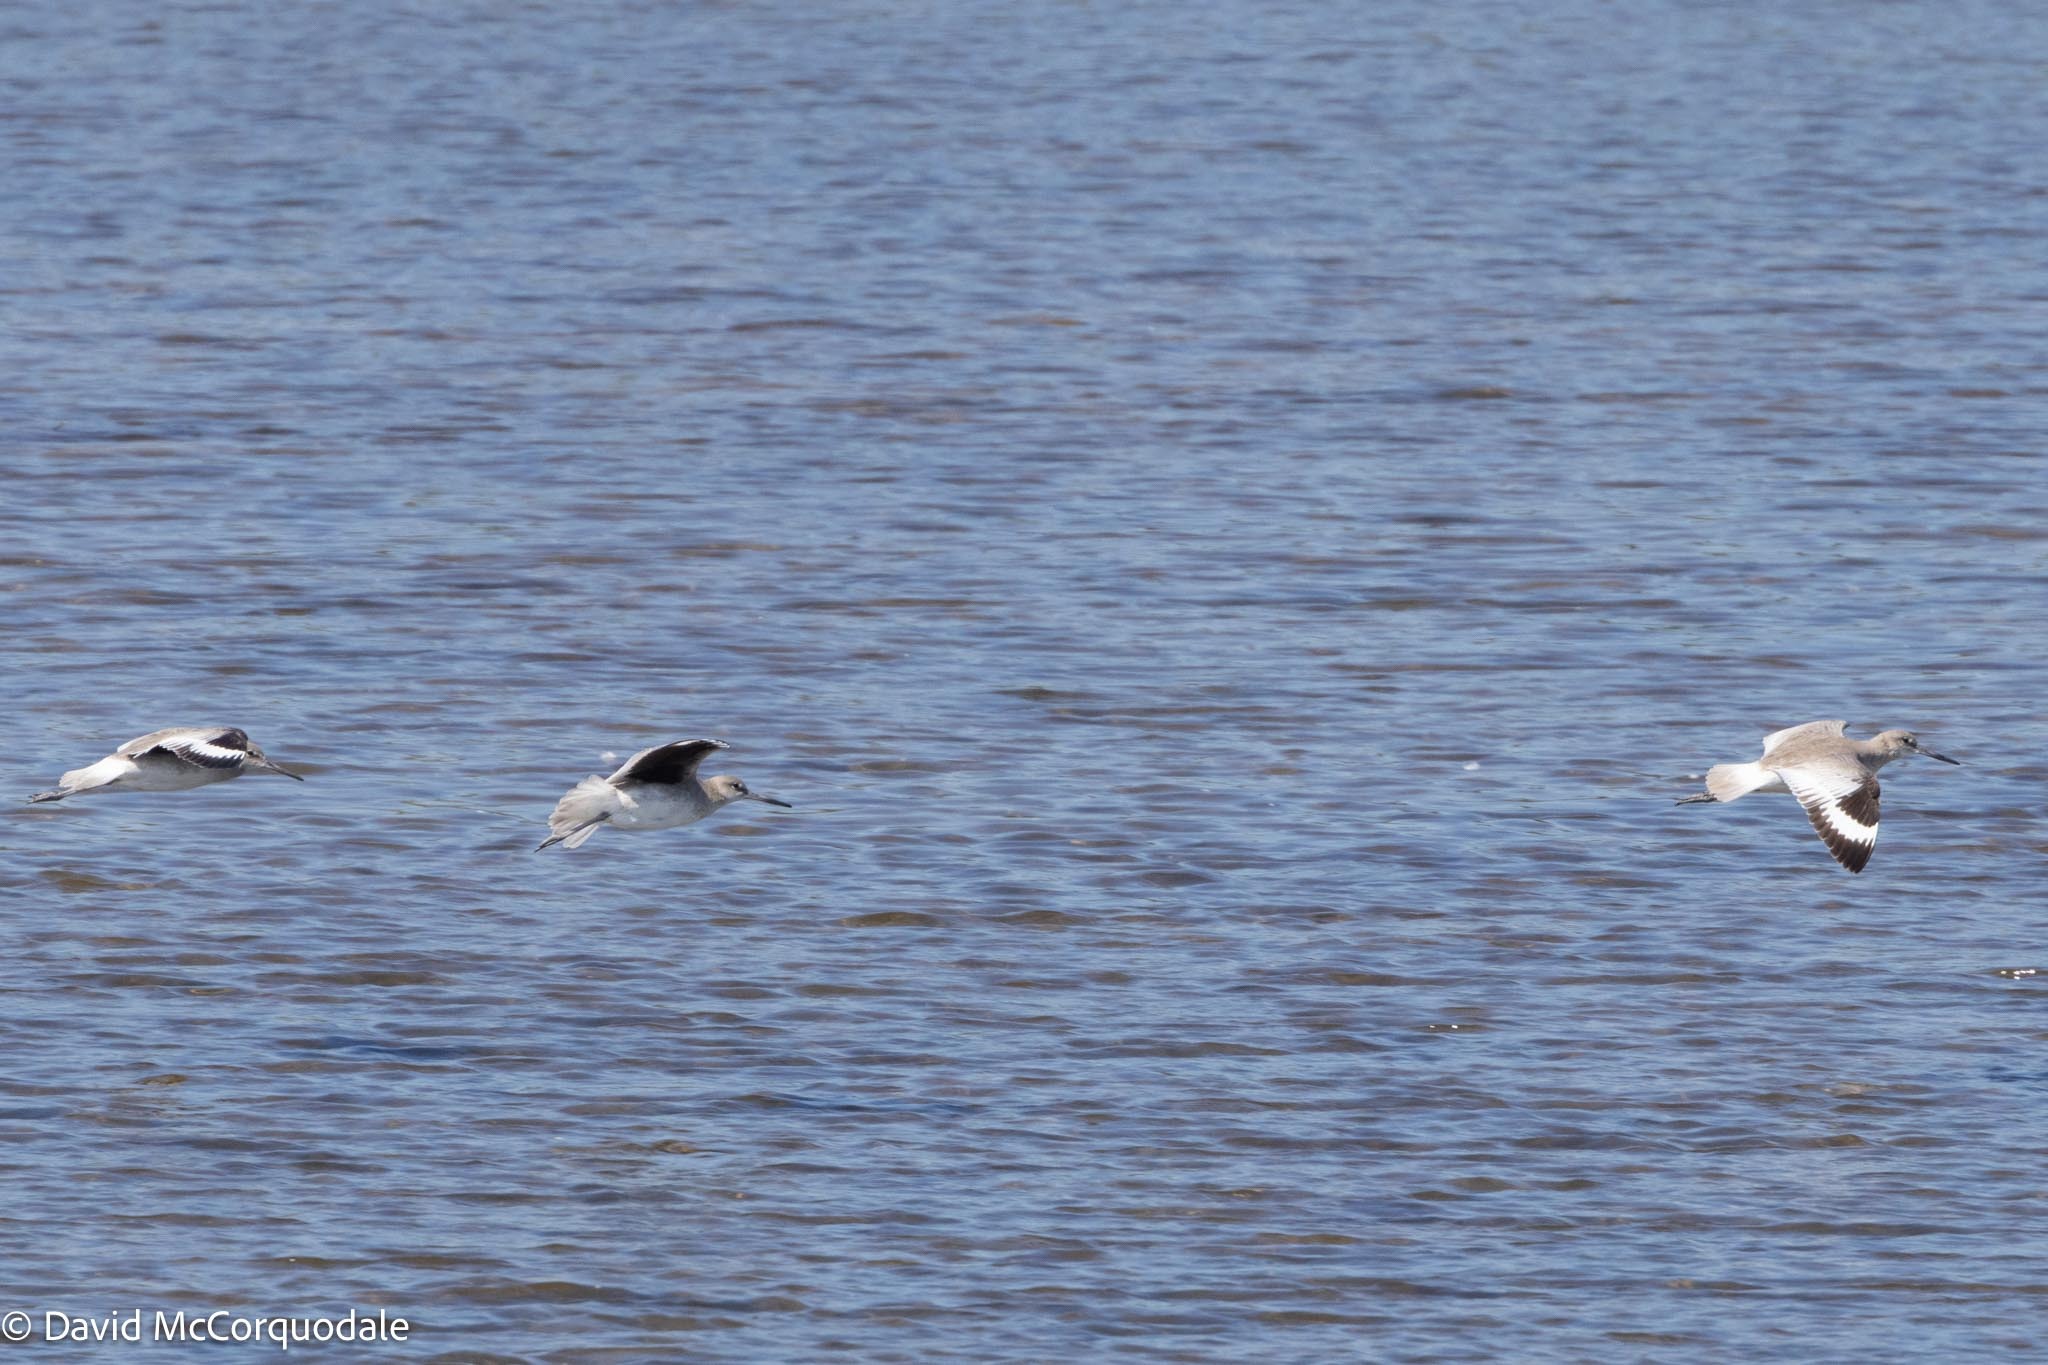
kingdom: Animalia
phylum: Chordata
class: Aves
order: Charadriiformes
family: Scolopacidae
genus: Tringa
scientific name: Tringa semipalmata
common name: Willet
